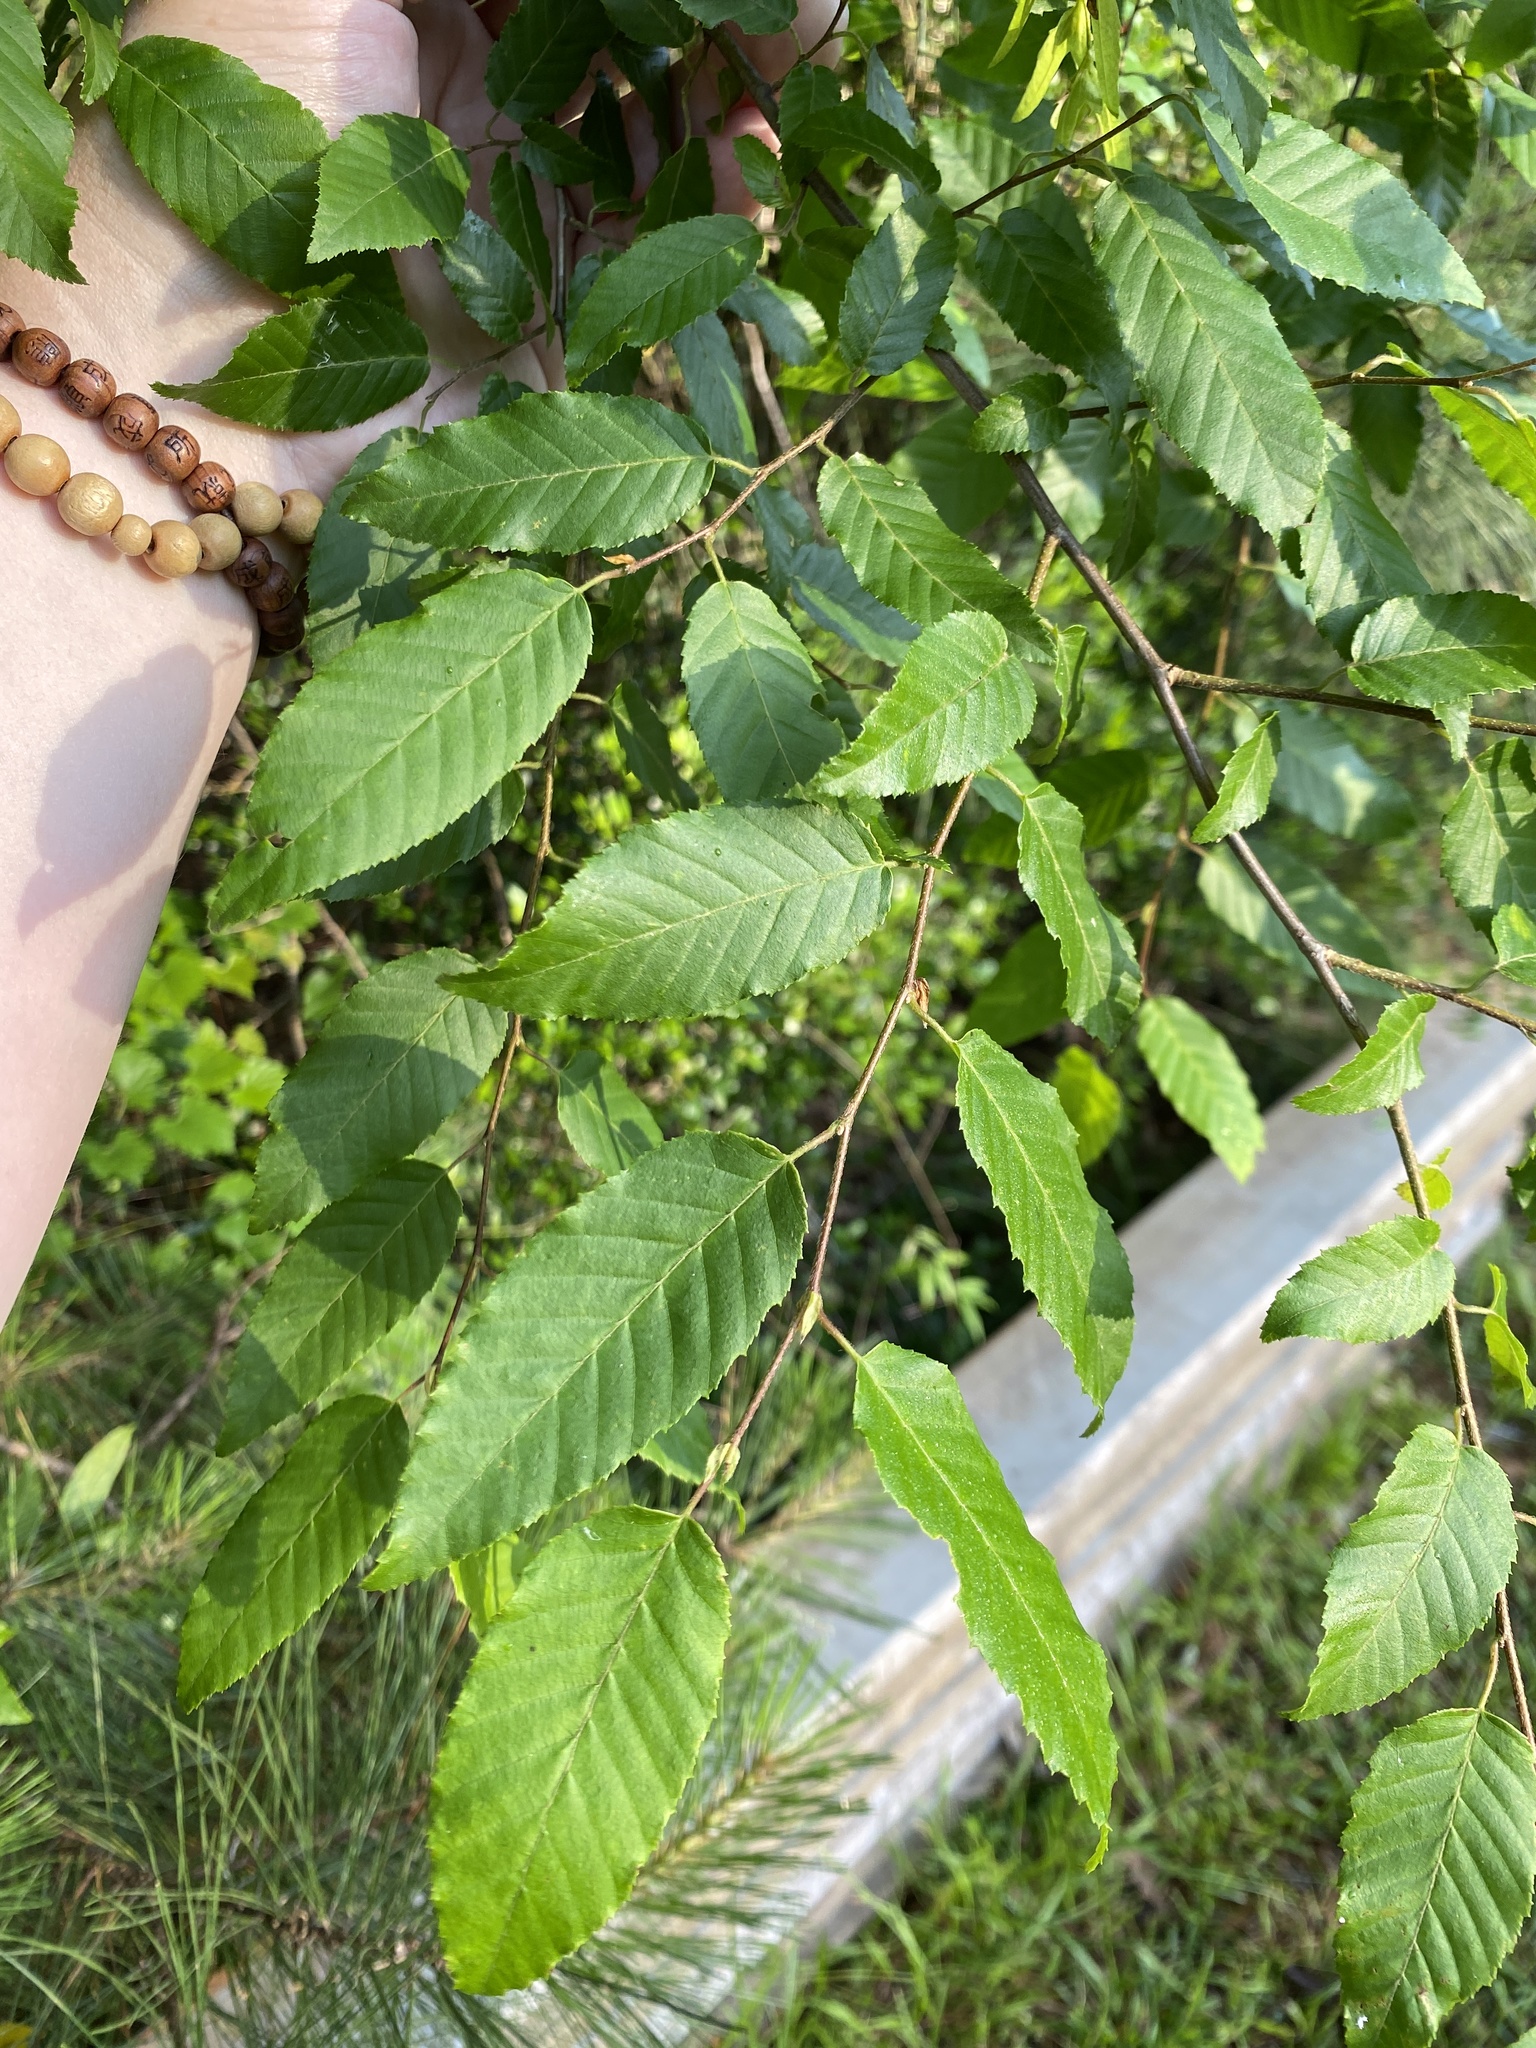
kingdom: Plantae
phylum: Tracheophyta
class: Magnoliopsida
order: Fagales
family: Betulaceae
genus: Carpinus
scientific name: Carpinus caroliniana
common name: American hornbeam
